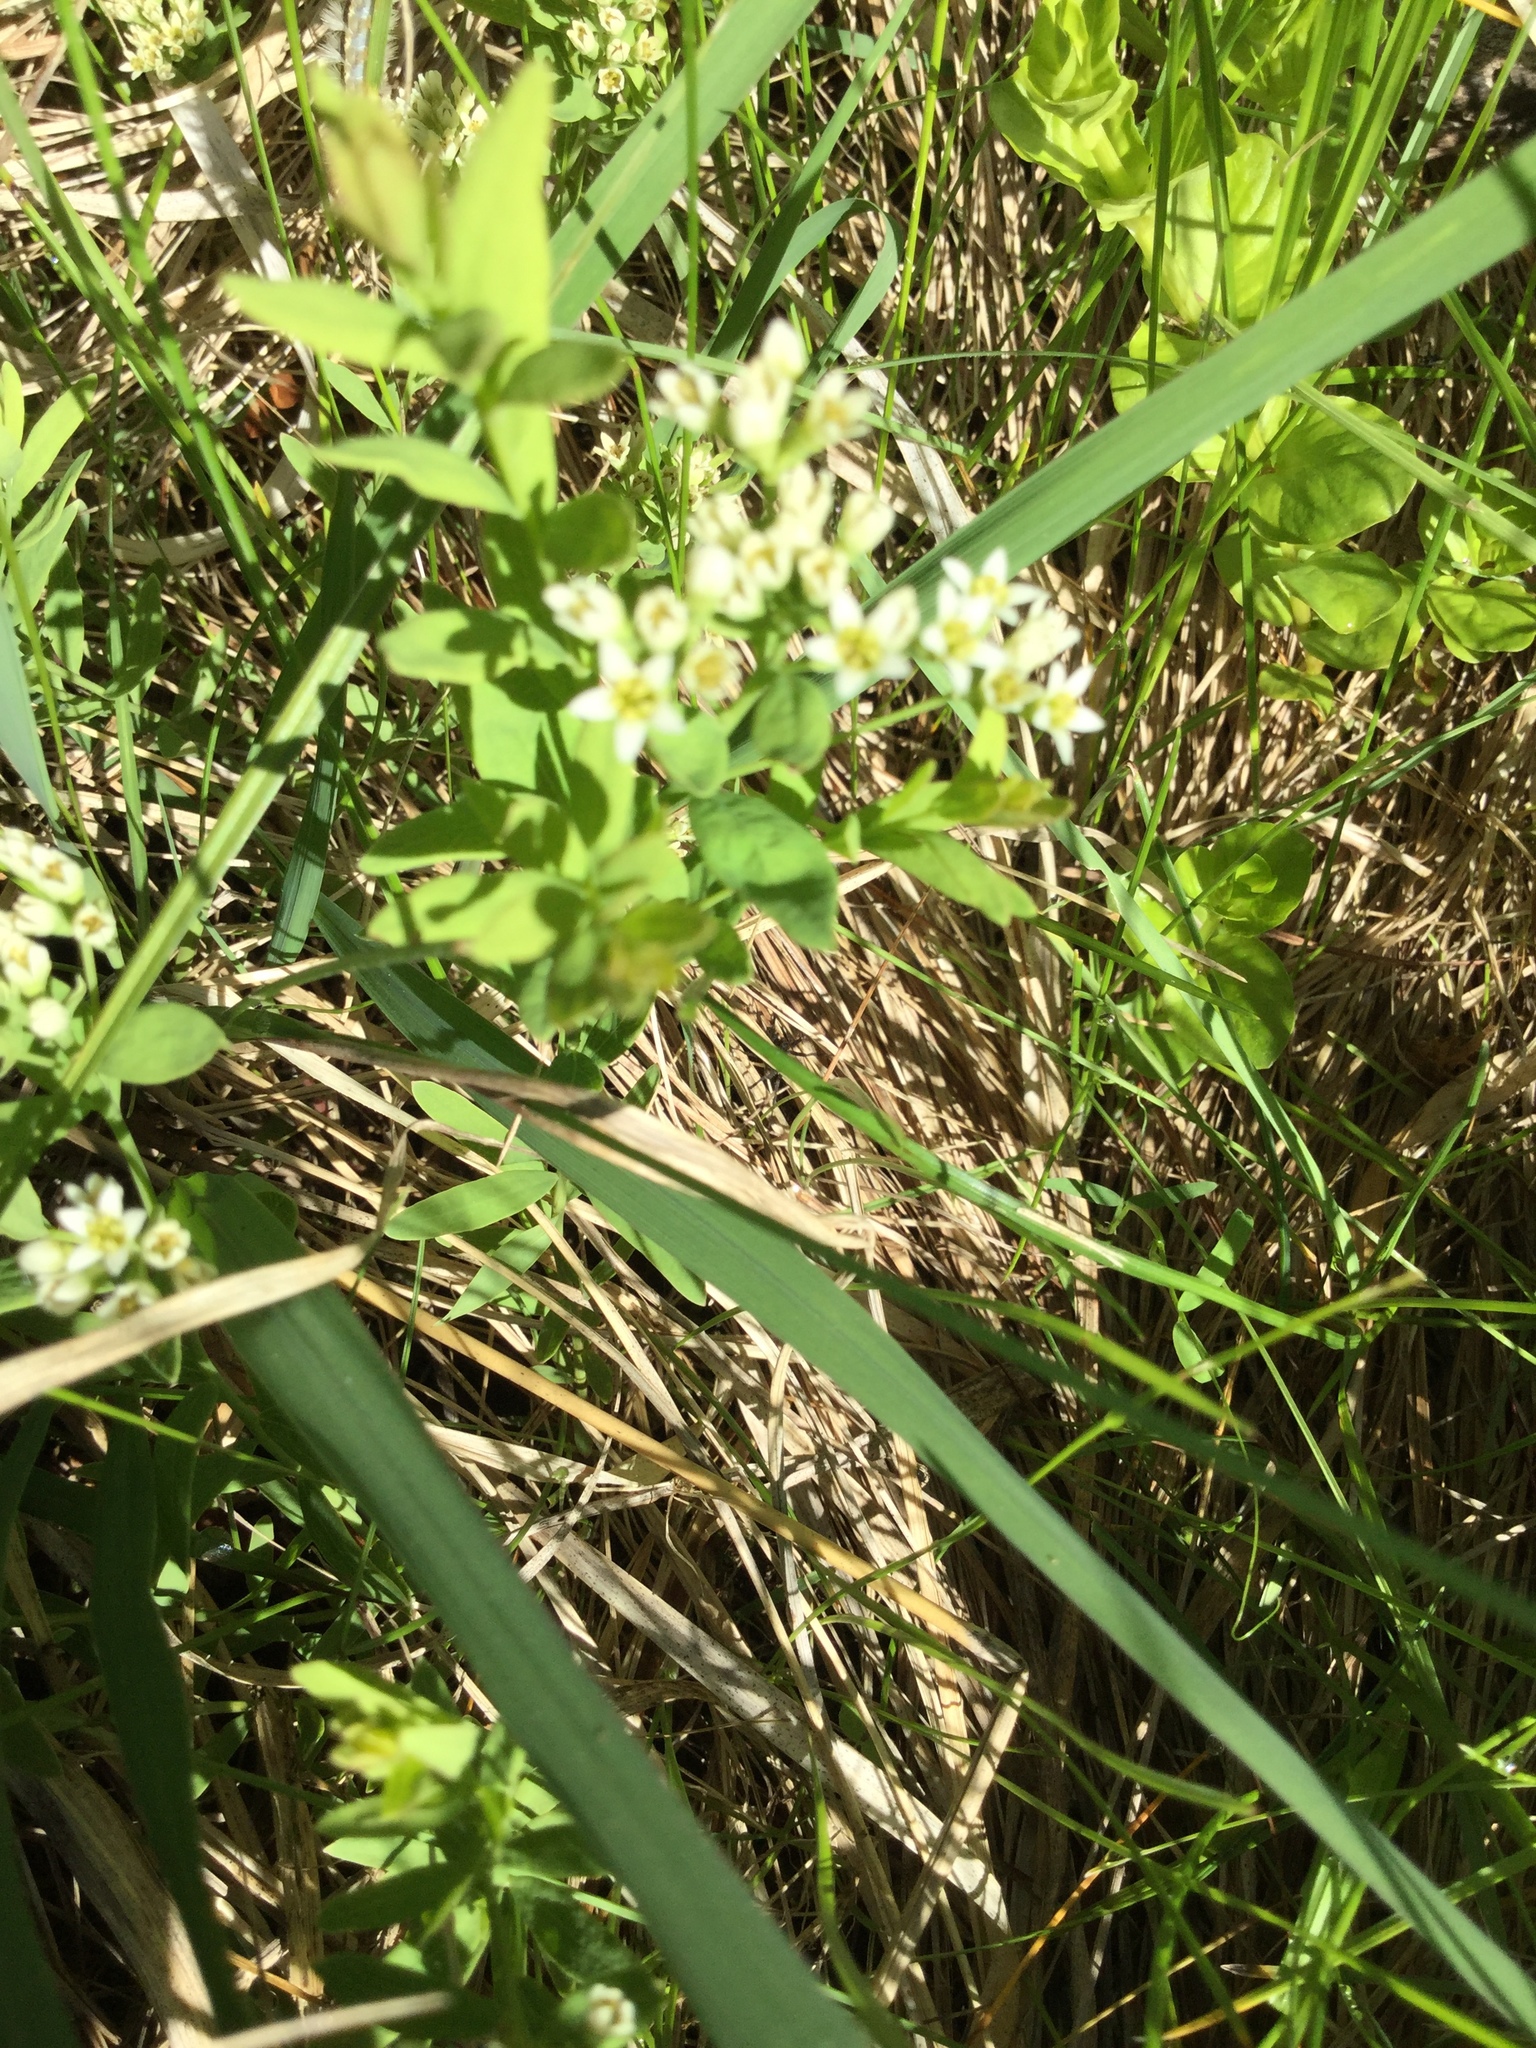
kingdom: Plantae
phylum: Tracheophyta
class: Magnoliopsida
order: Santalales
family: Comandraceae
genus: Comandra
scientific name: Comandra umbellata
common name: Bastard toadflax
